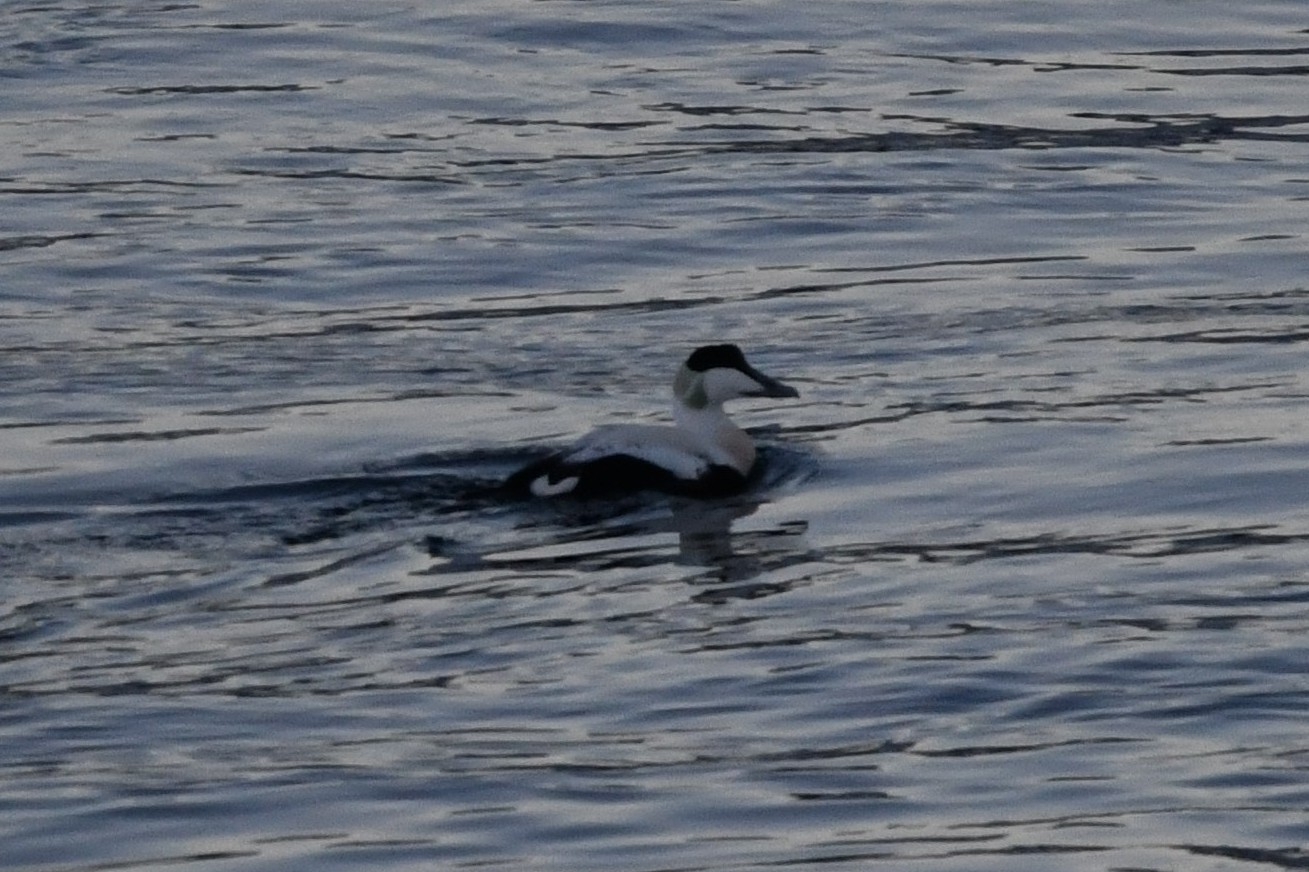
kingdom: Animalia
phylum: Chordata
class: Aves
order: Anseriformes
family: Anatidae
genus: Somateria
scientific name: Somateria mollissima
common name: Common eider
